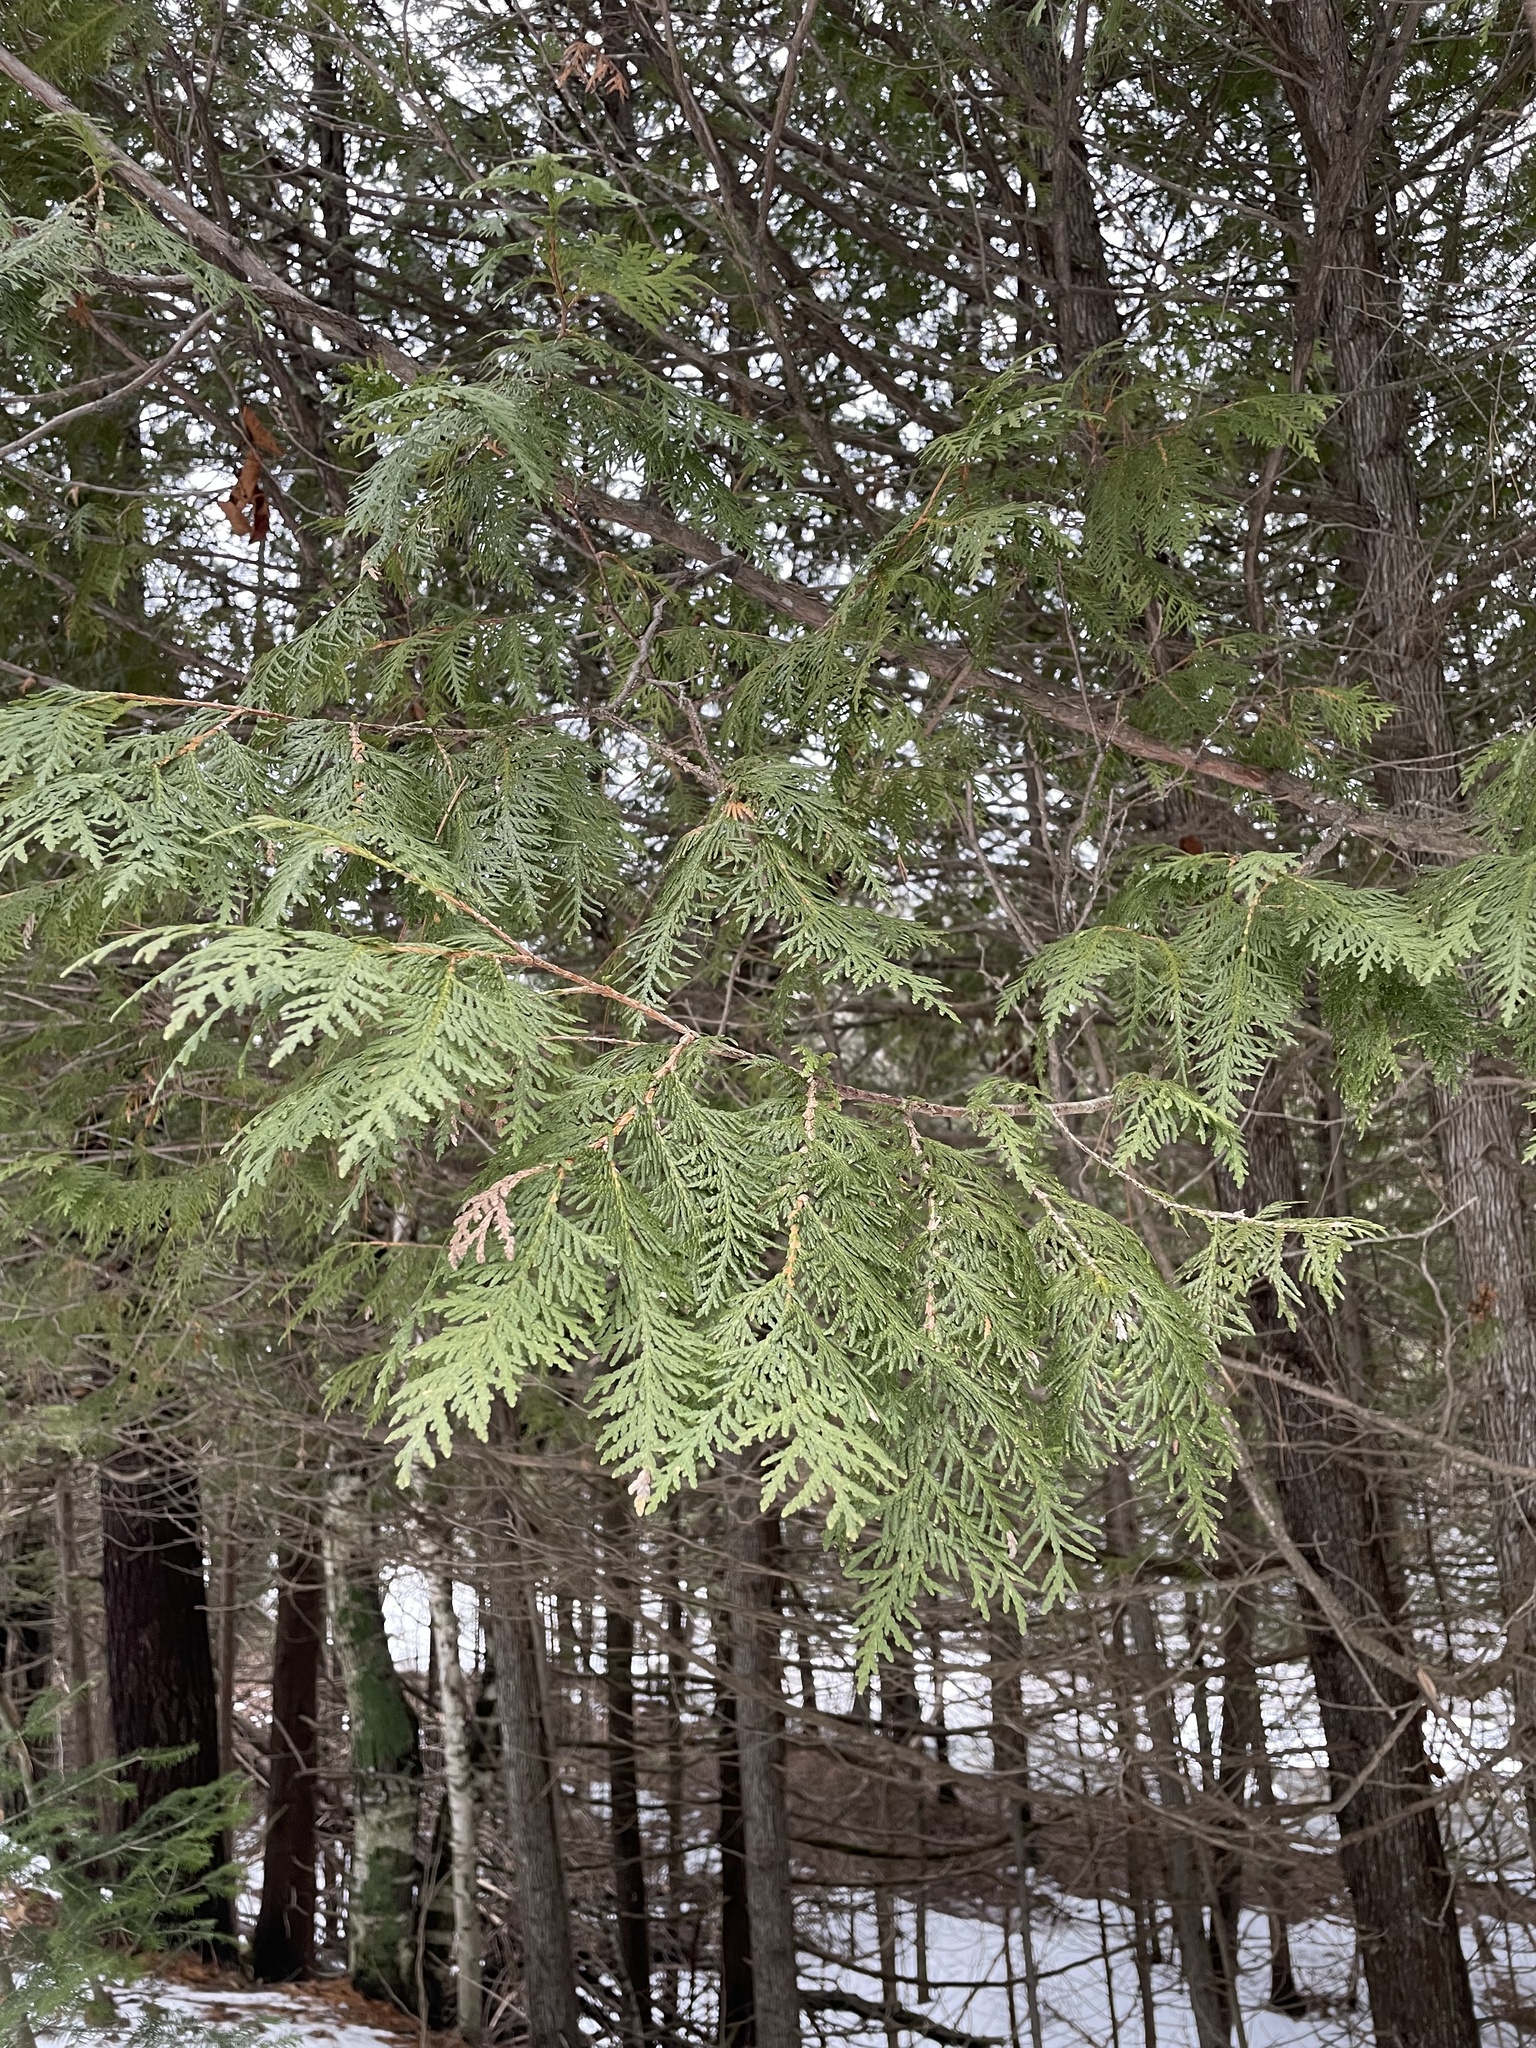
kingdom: Plantae
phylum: Tracheophyta
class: Pinopsida
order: Pinales
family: Cupressaceae
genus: Thuja
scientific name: Thuja occidentalis
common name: Northern white-cedar
